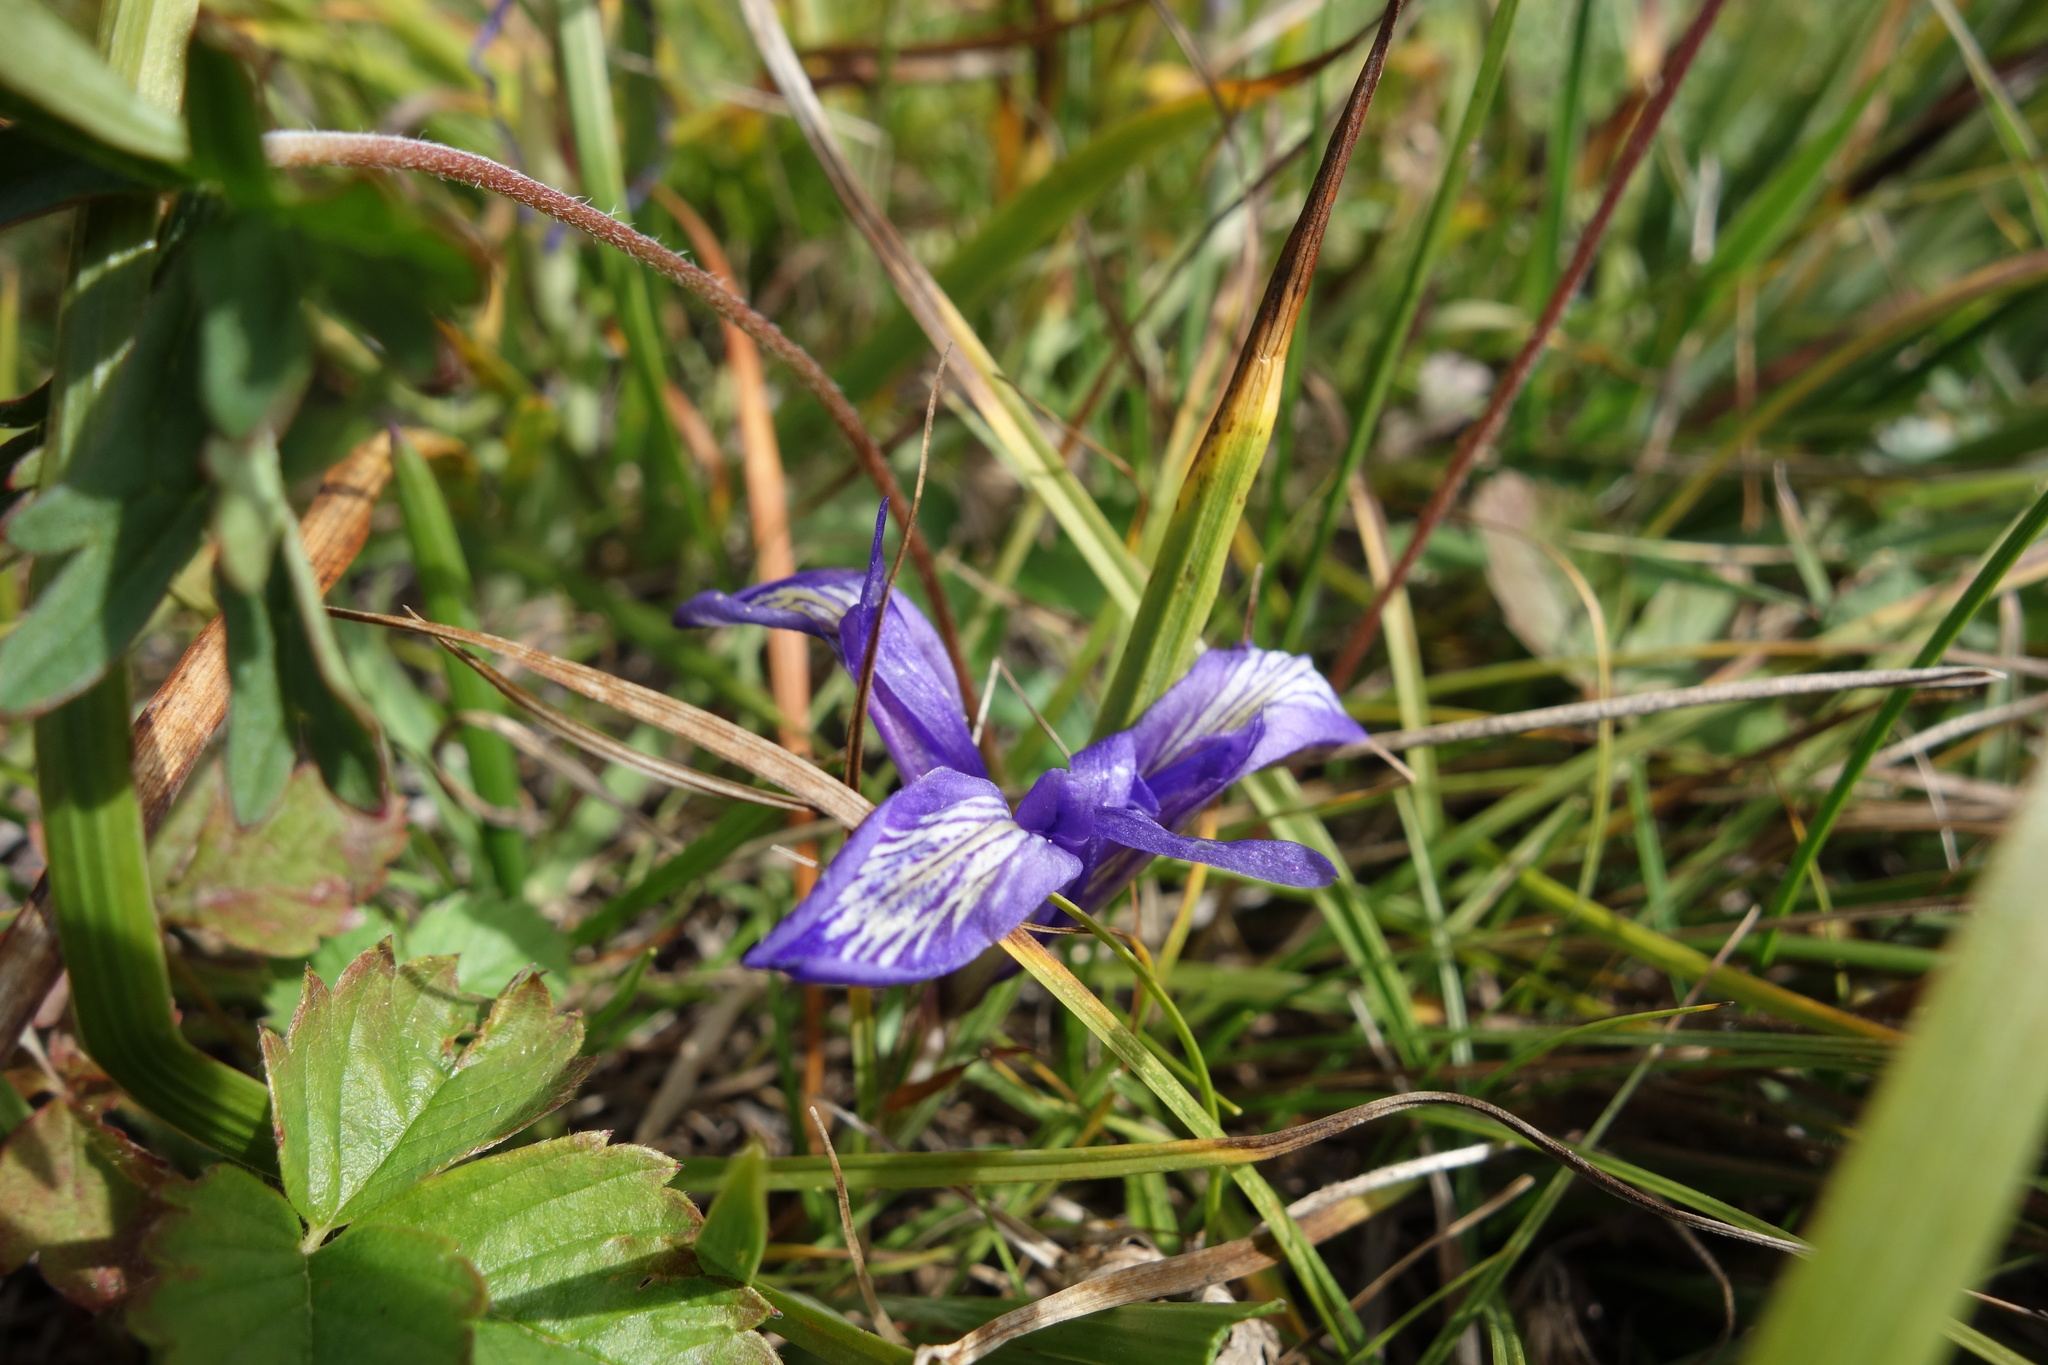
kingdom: Plantae
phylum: Tracheophyta
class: Liliopsida
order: Asparagales
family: Iridaceae
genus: Iris
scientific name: Iris ruthenica
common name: Purple-bract iris
